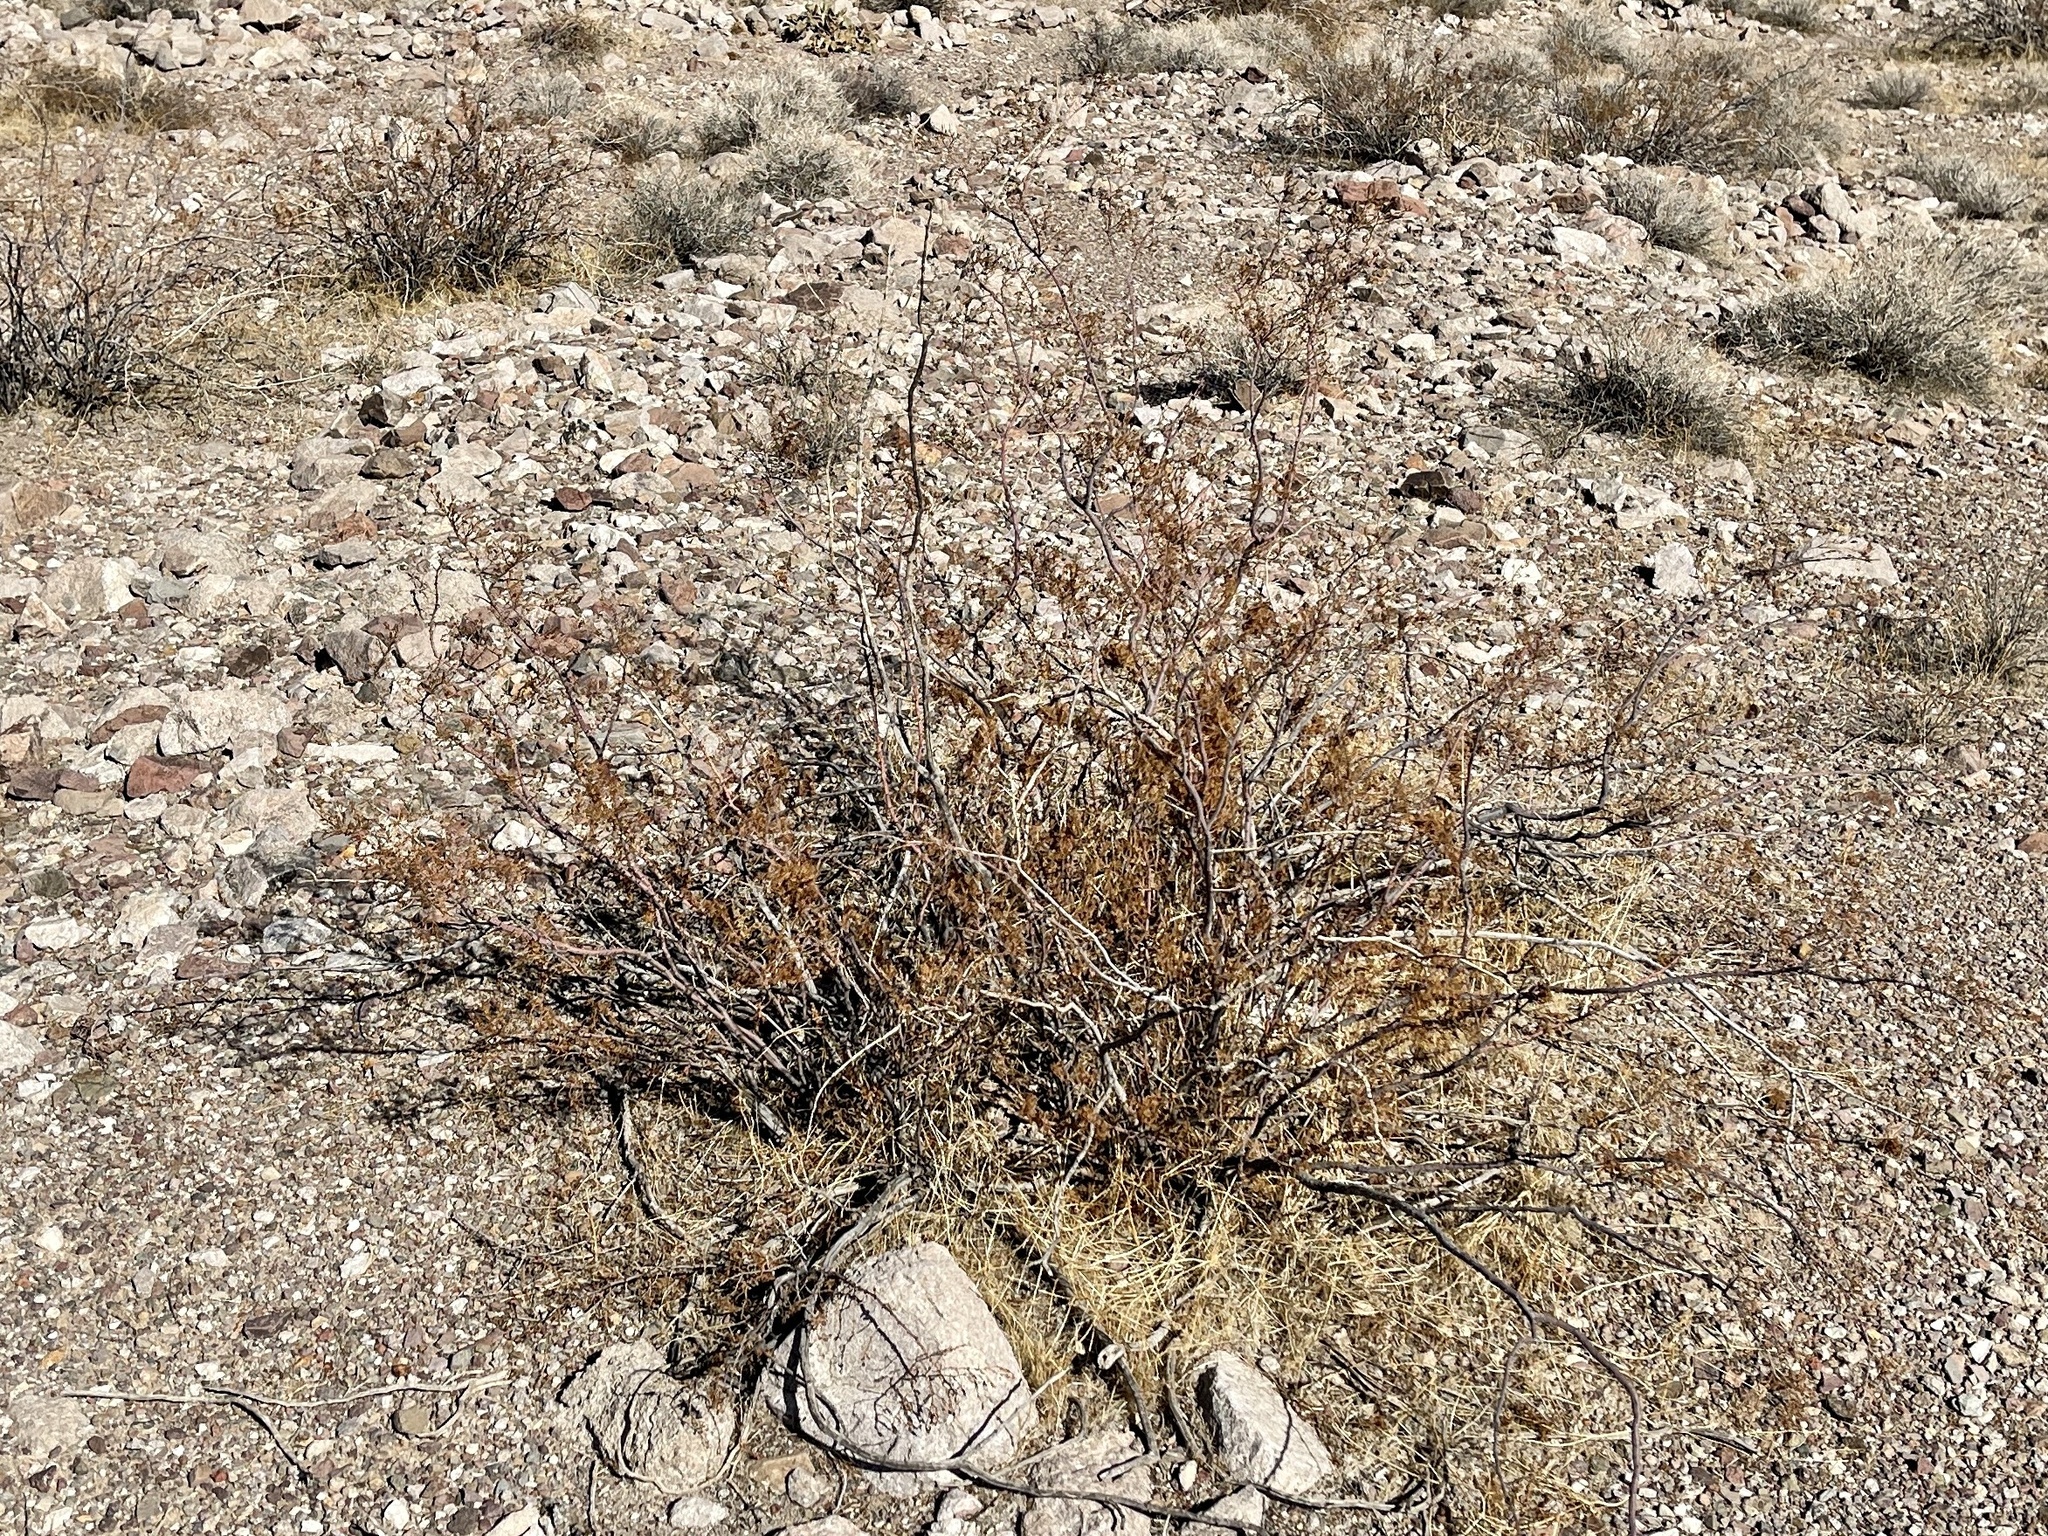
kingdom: Plantae
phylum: Tracheophyta
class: Magnoliopsida
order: Zygophyllales
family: Zygophyllaceae
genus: Larrea
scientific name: Larrea tridentata
